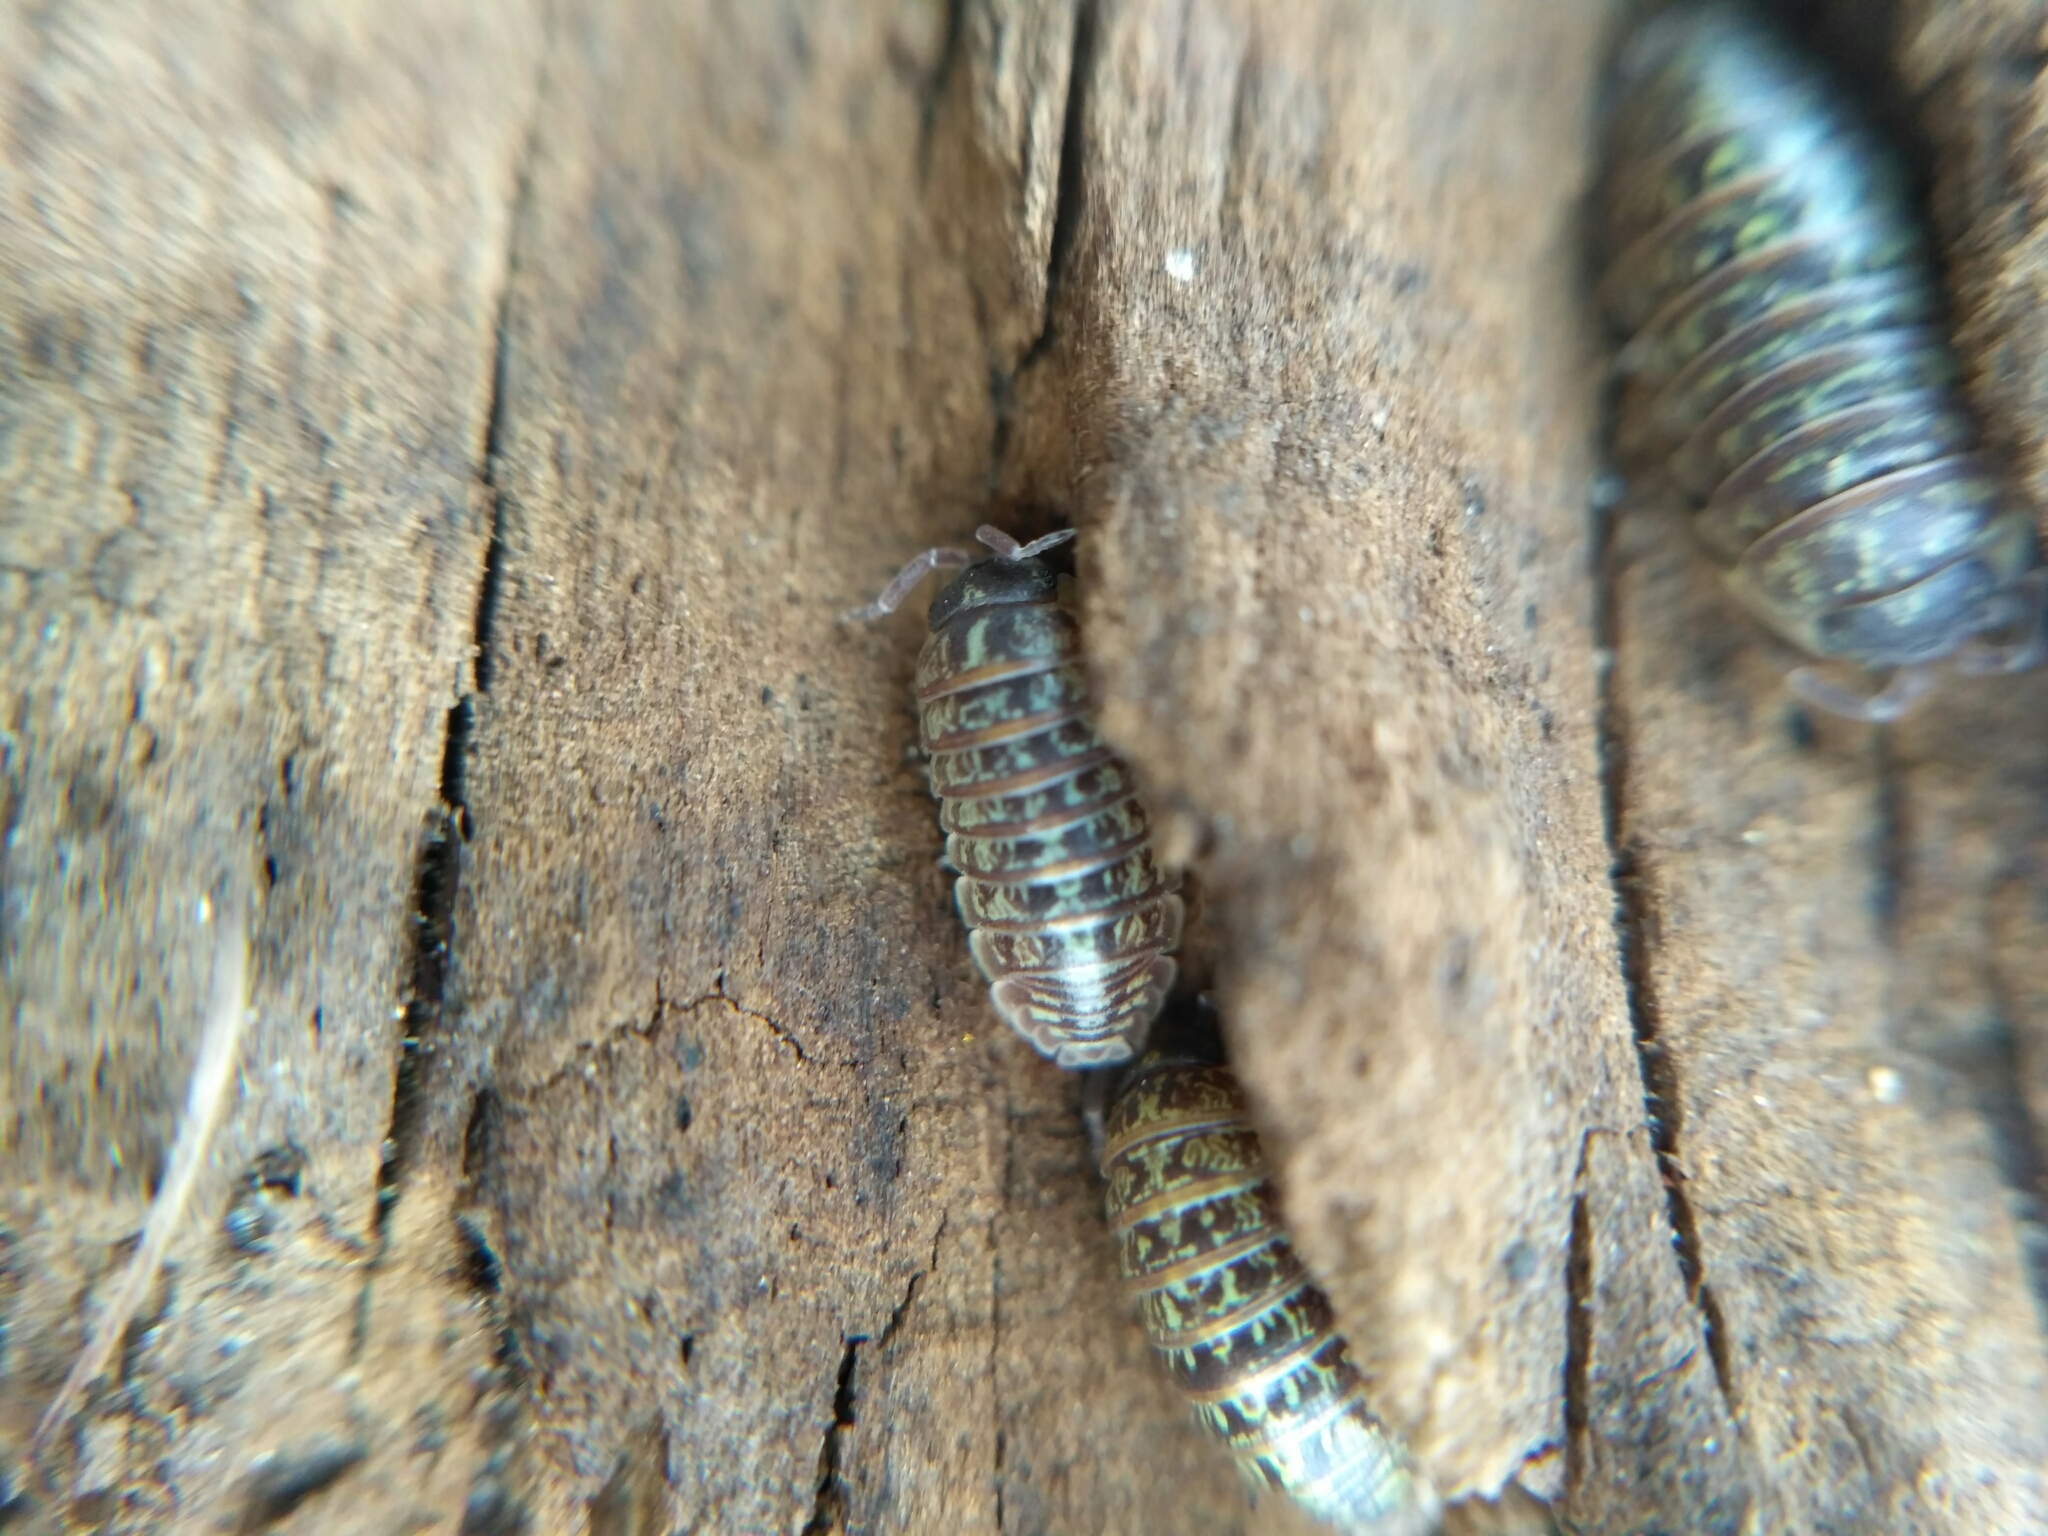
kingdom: Animalia
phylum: Arthropoda
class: Malacostraca
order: Isopoda
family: Armadillidiidae
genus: Armadillidium
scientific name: Armadillidium versicolor
